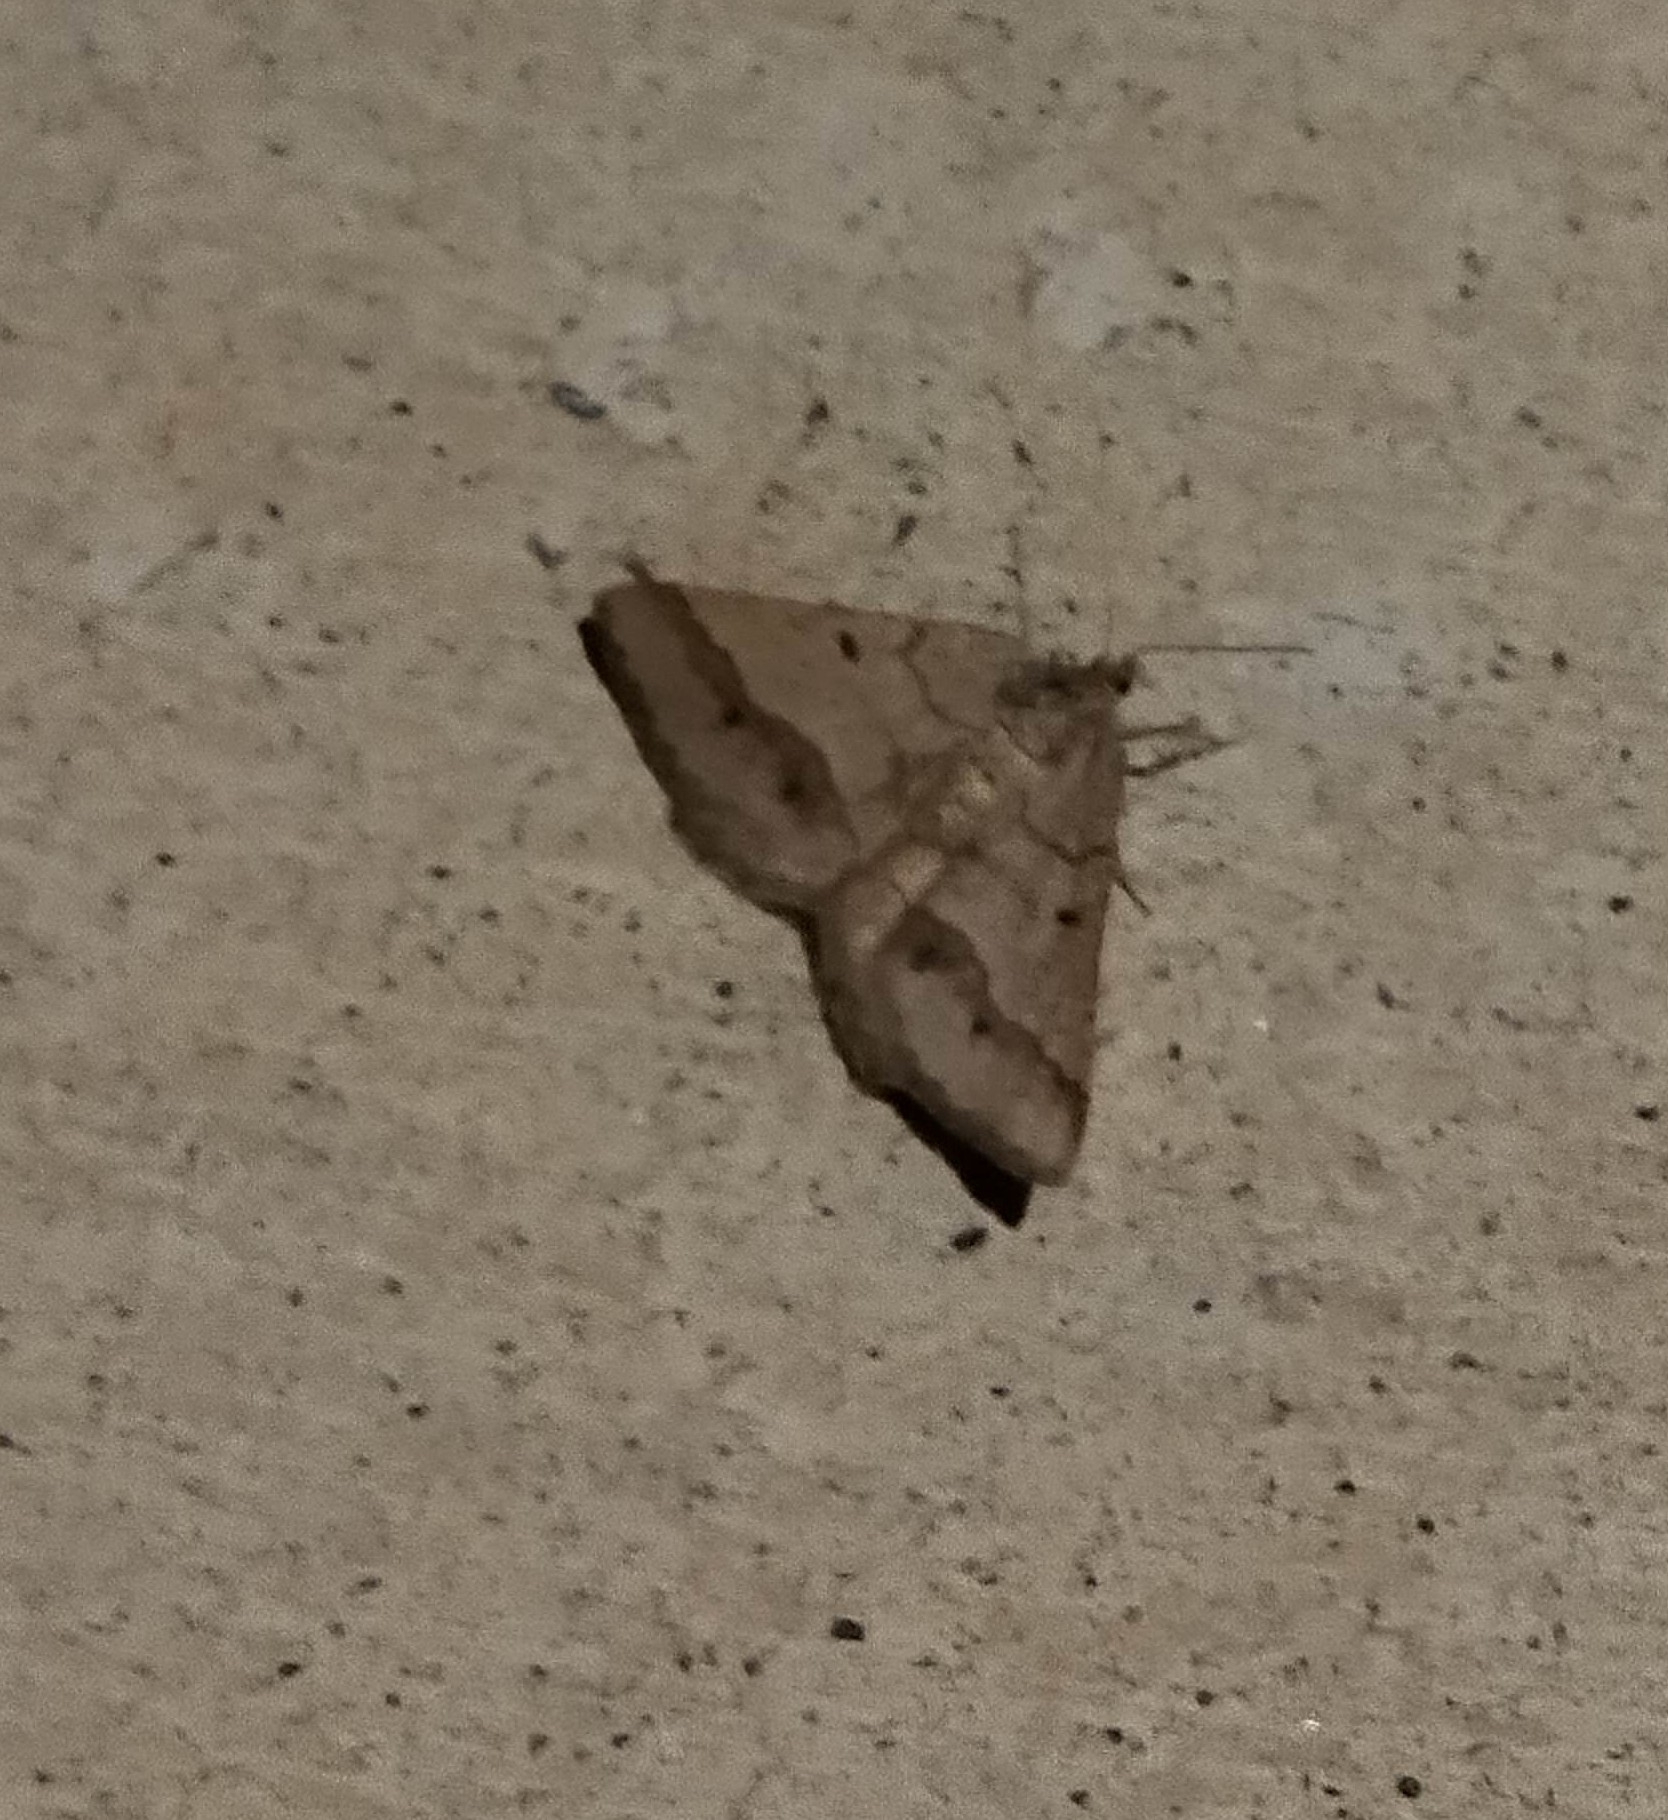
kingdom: Animalia
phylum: Arthropoda
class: Insecta
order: Lepidoptera
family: Geometridae
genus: Tephrina
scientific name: Tephrina murinaria
